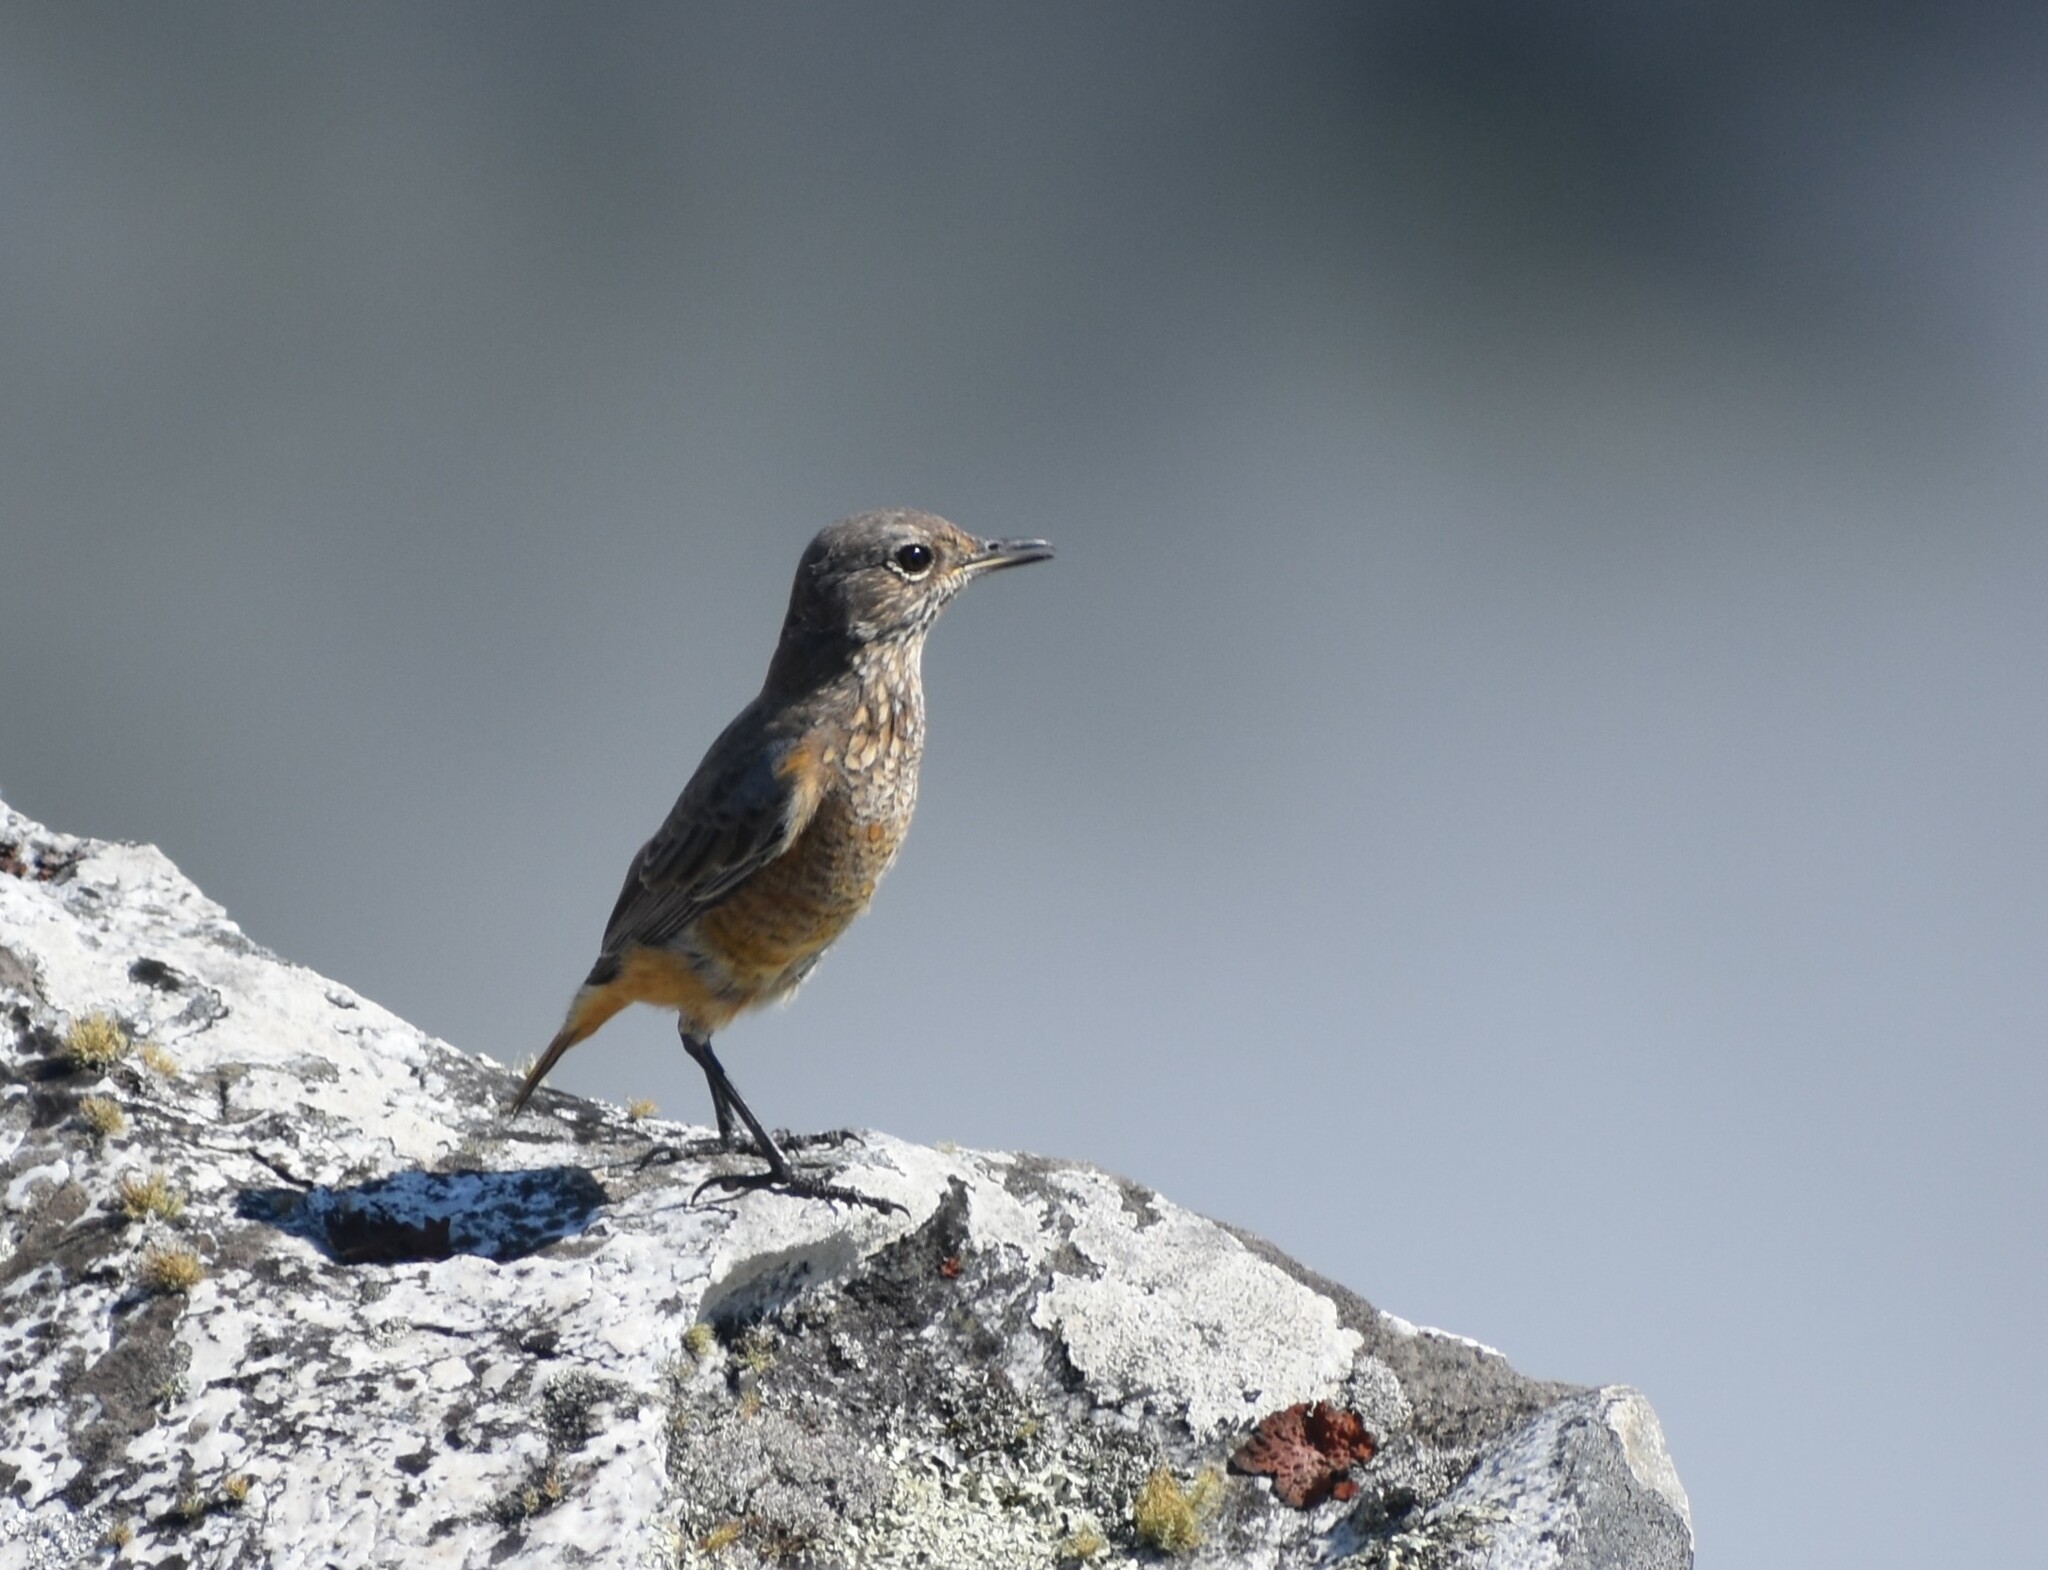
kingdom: Animalia
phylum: Chordata
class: Aves
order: Passeriformes
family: Muscicapidae
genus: Monticola
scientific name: Monticola explorator
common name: Sentinel rock thrush
